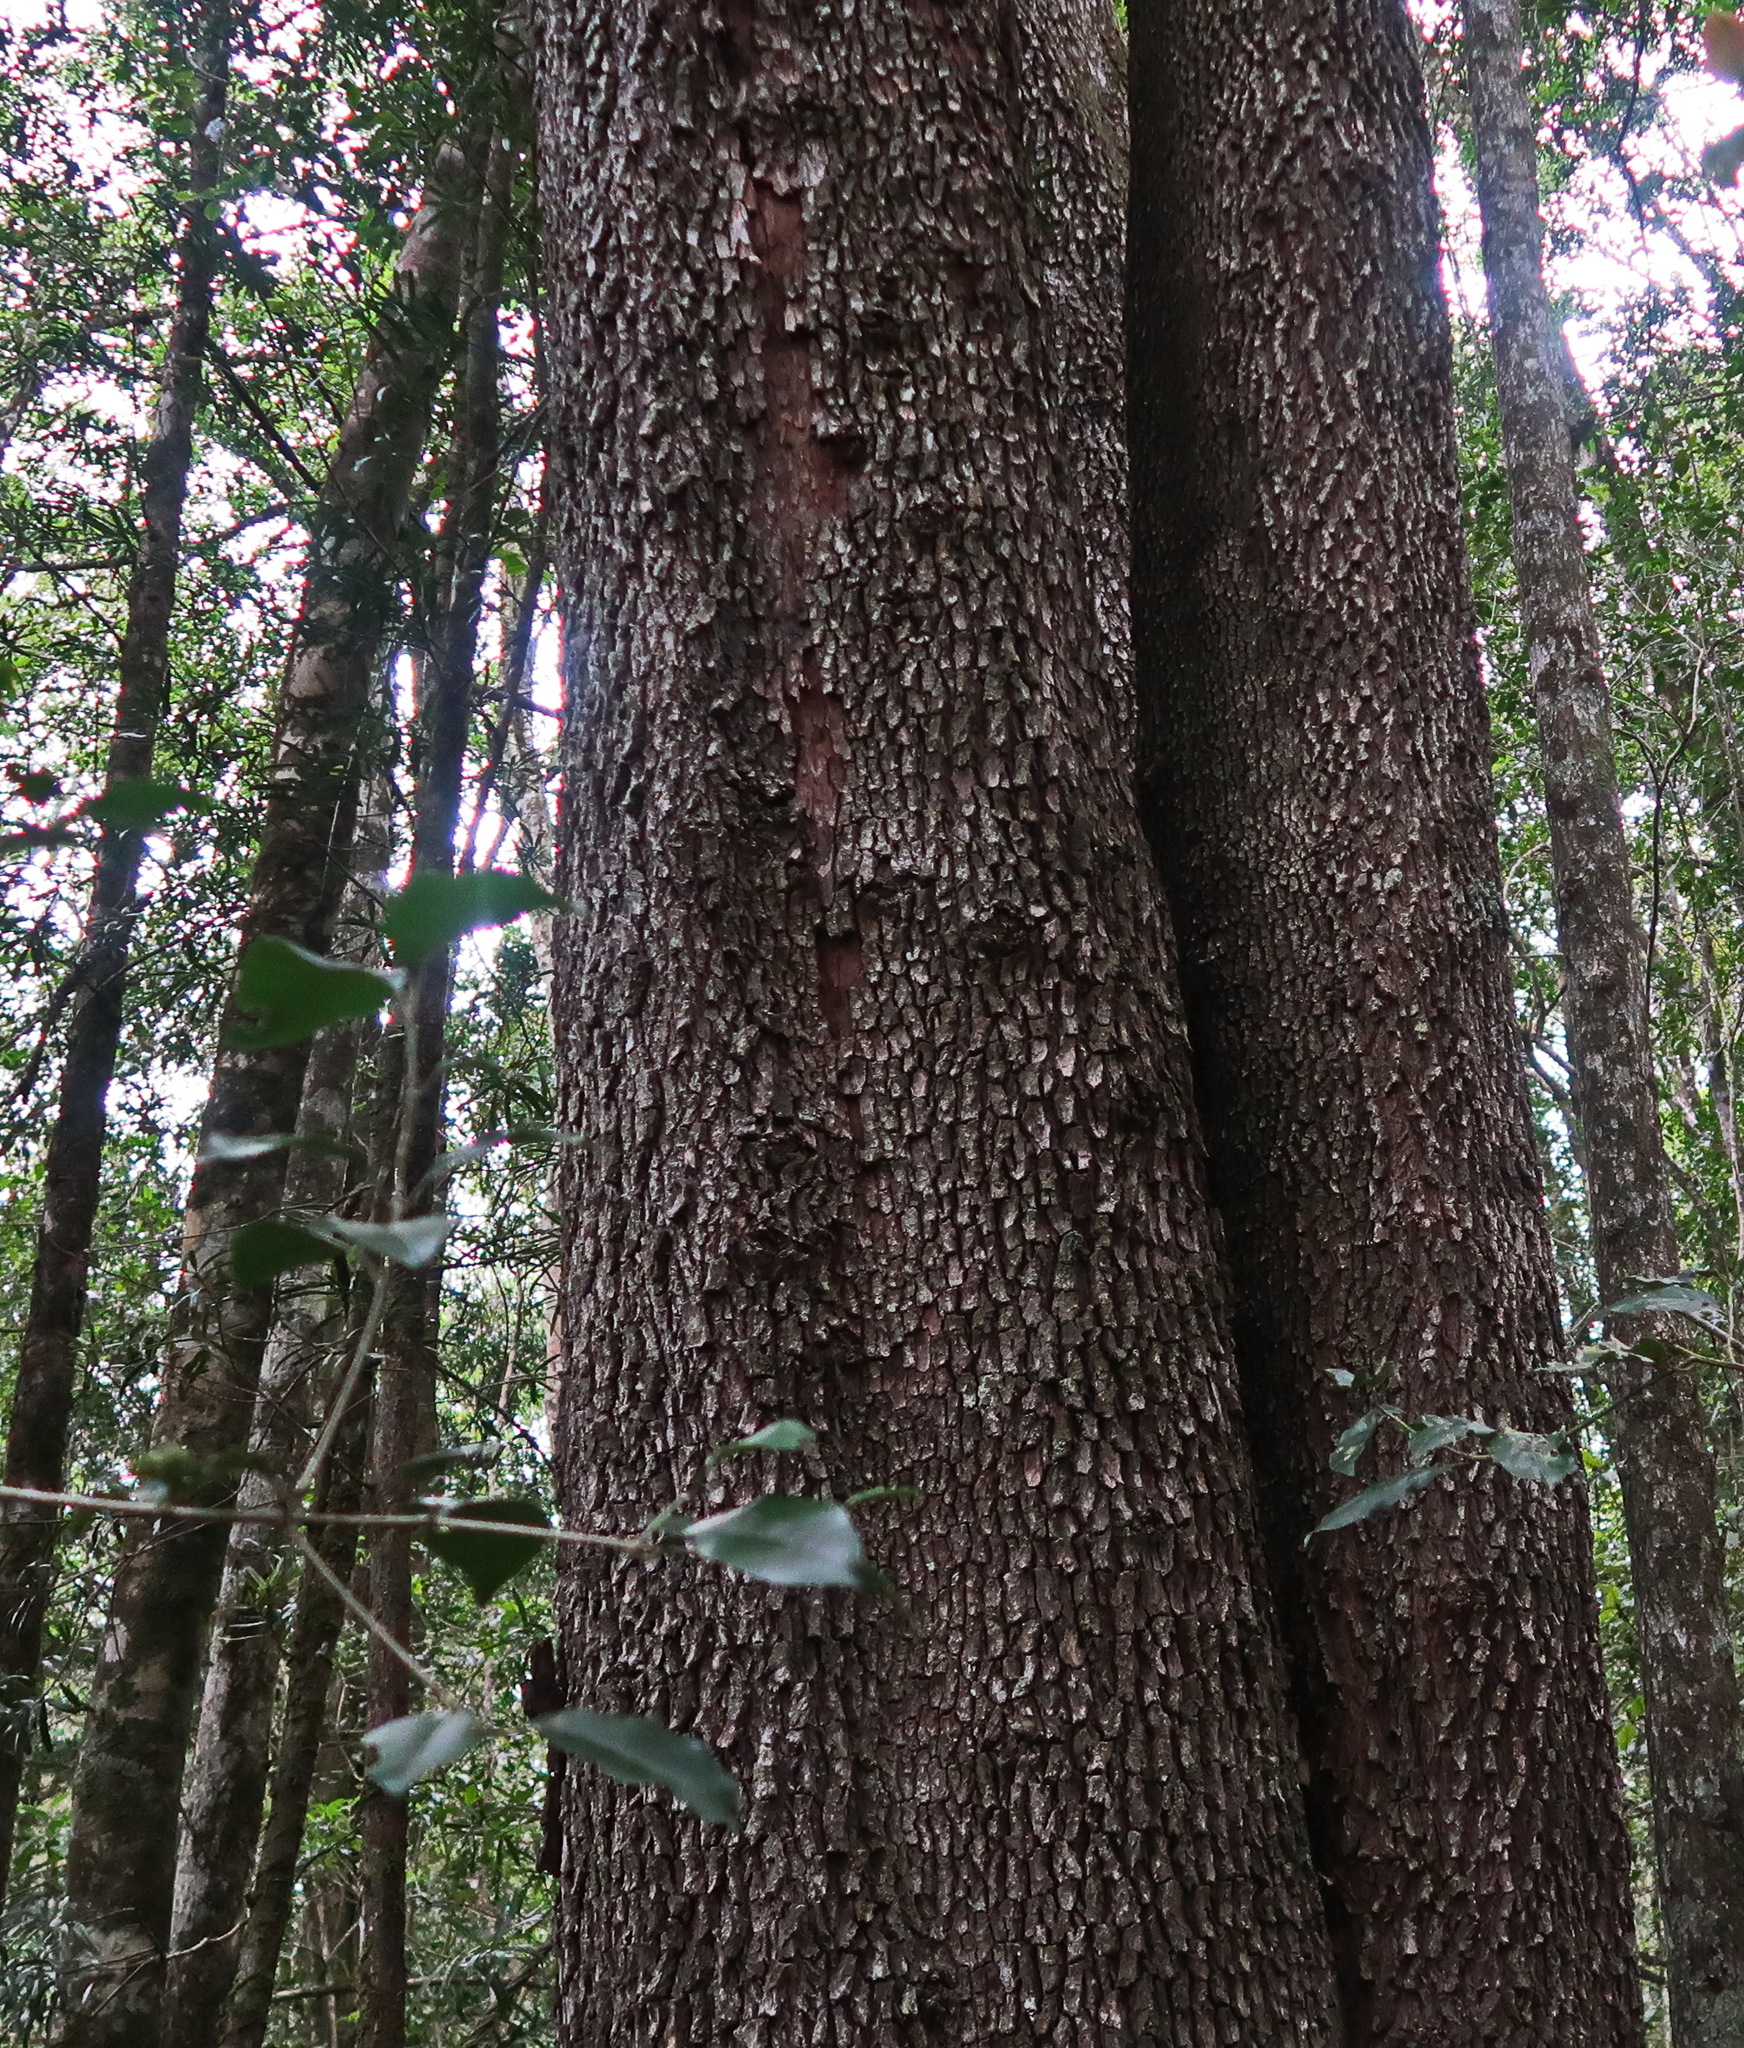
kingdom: Plantae
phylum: Tracheophyta
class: Magnoliopsida
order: Myrtales
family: Penaeaceae
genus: Olinia
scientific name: Olinia ventosa
